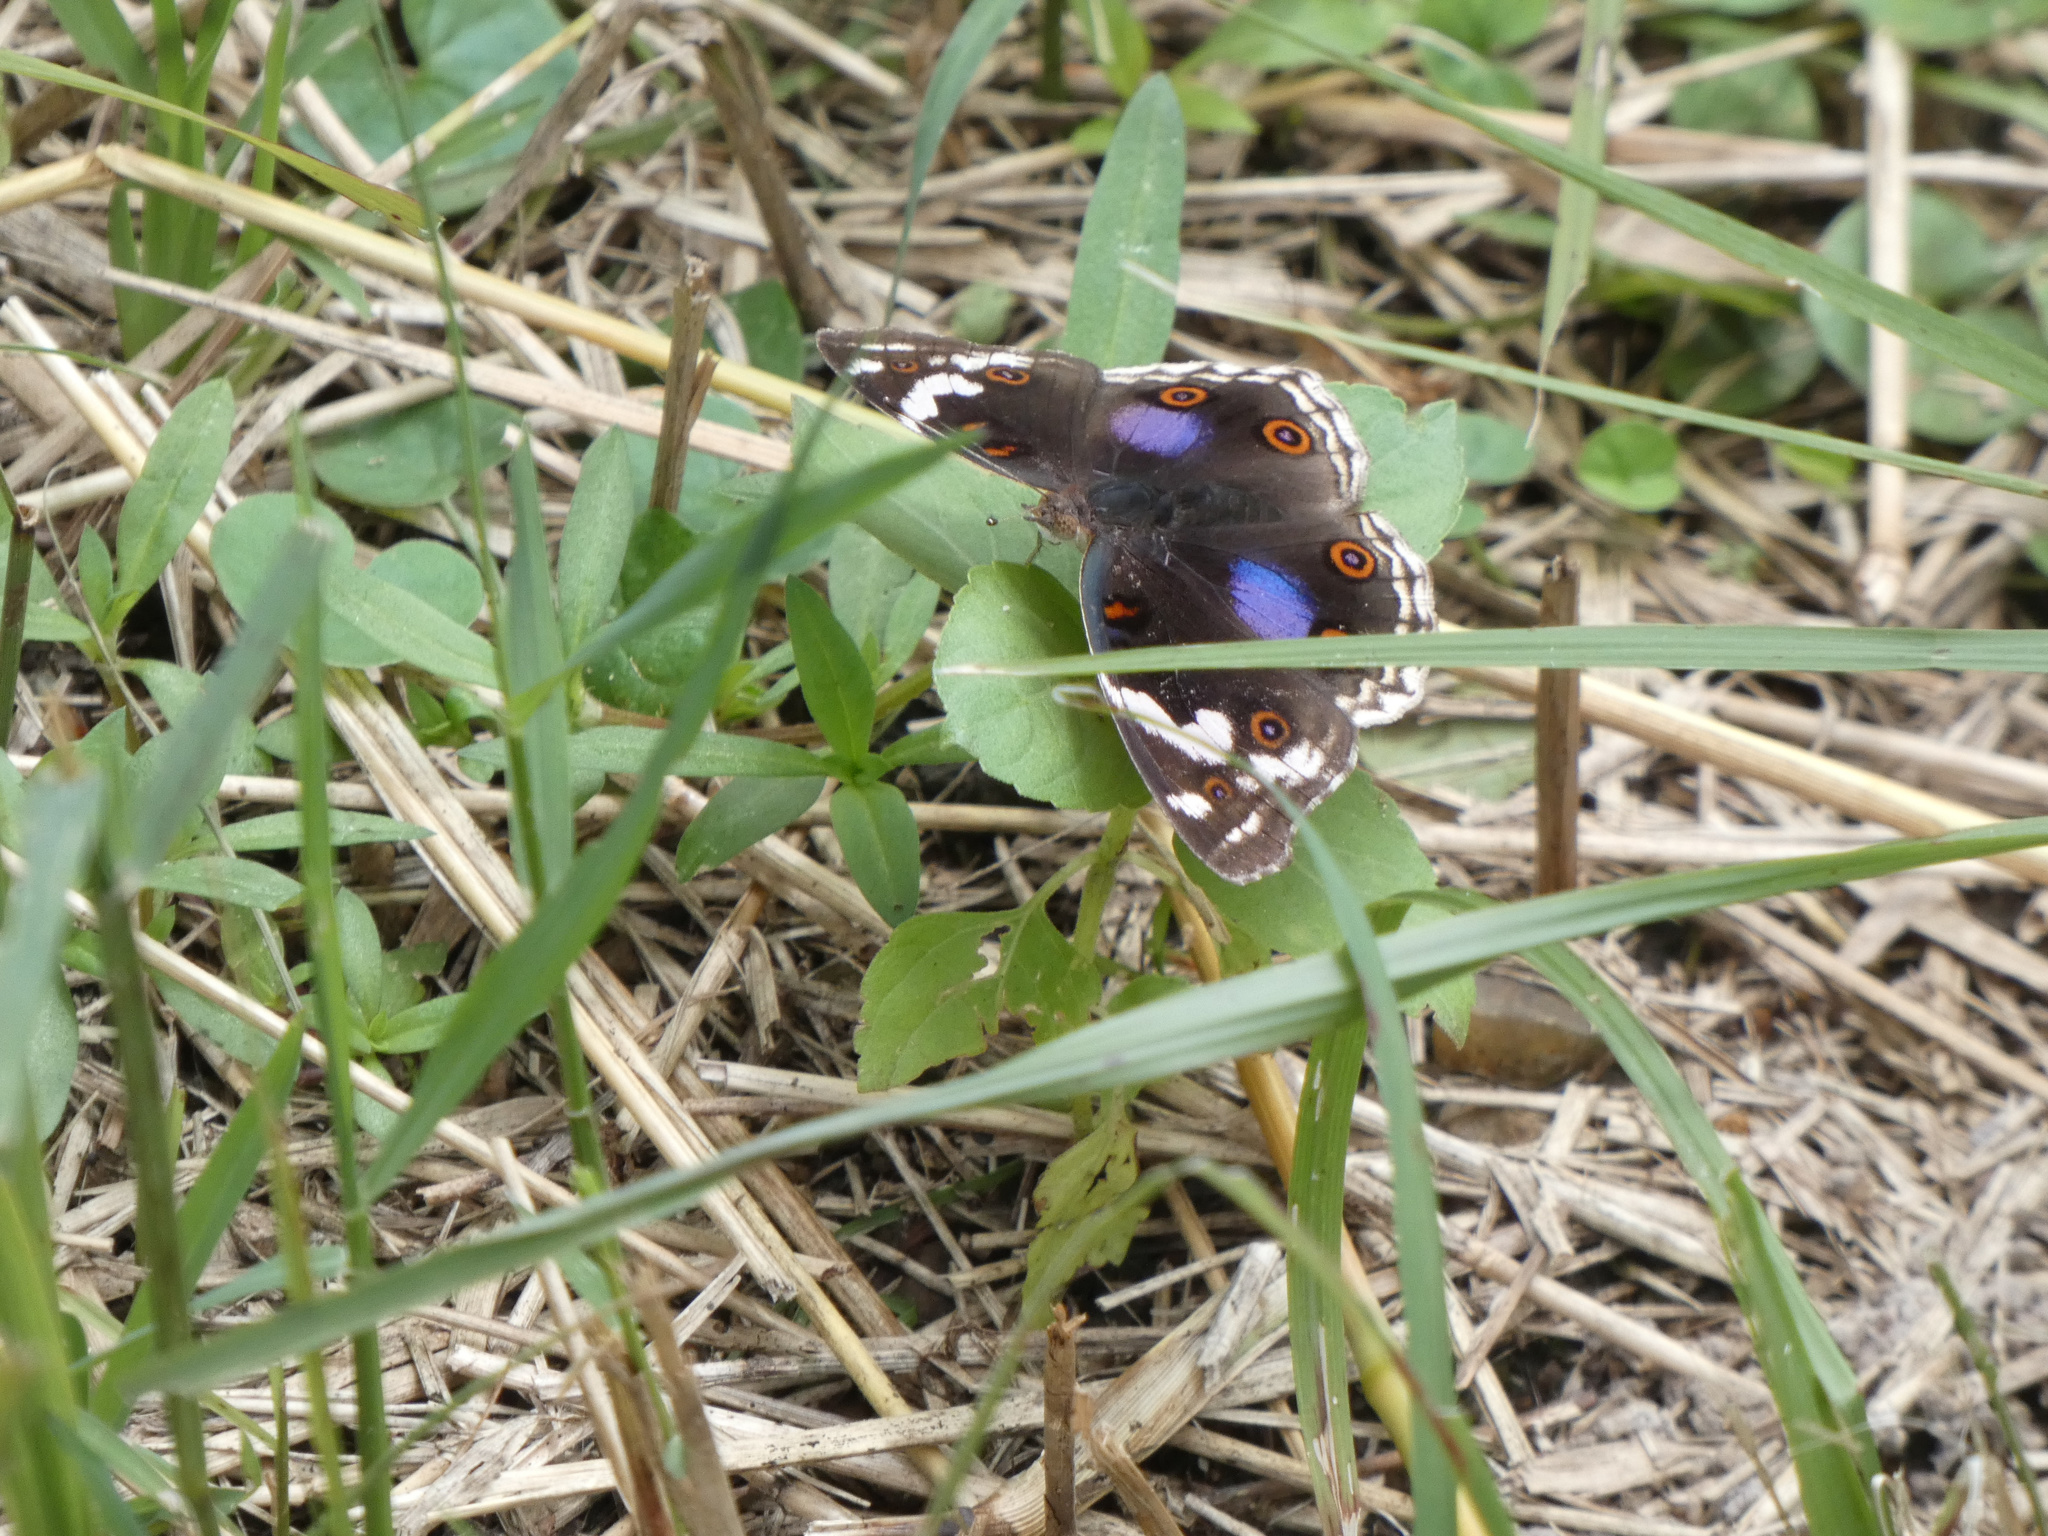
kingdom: Animalia
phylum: Arthropoda
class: Insecta
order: Lepidoptera
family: Nymphalidae
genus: Junonia
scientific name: Junonia oenone
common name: Dark blue pansy
